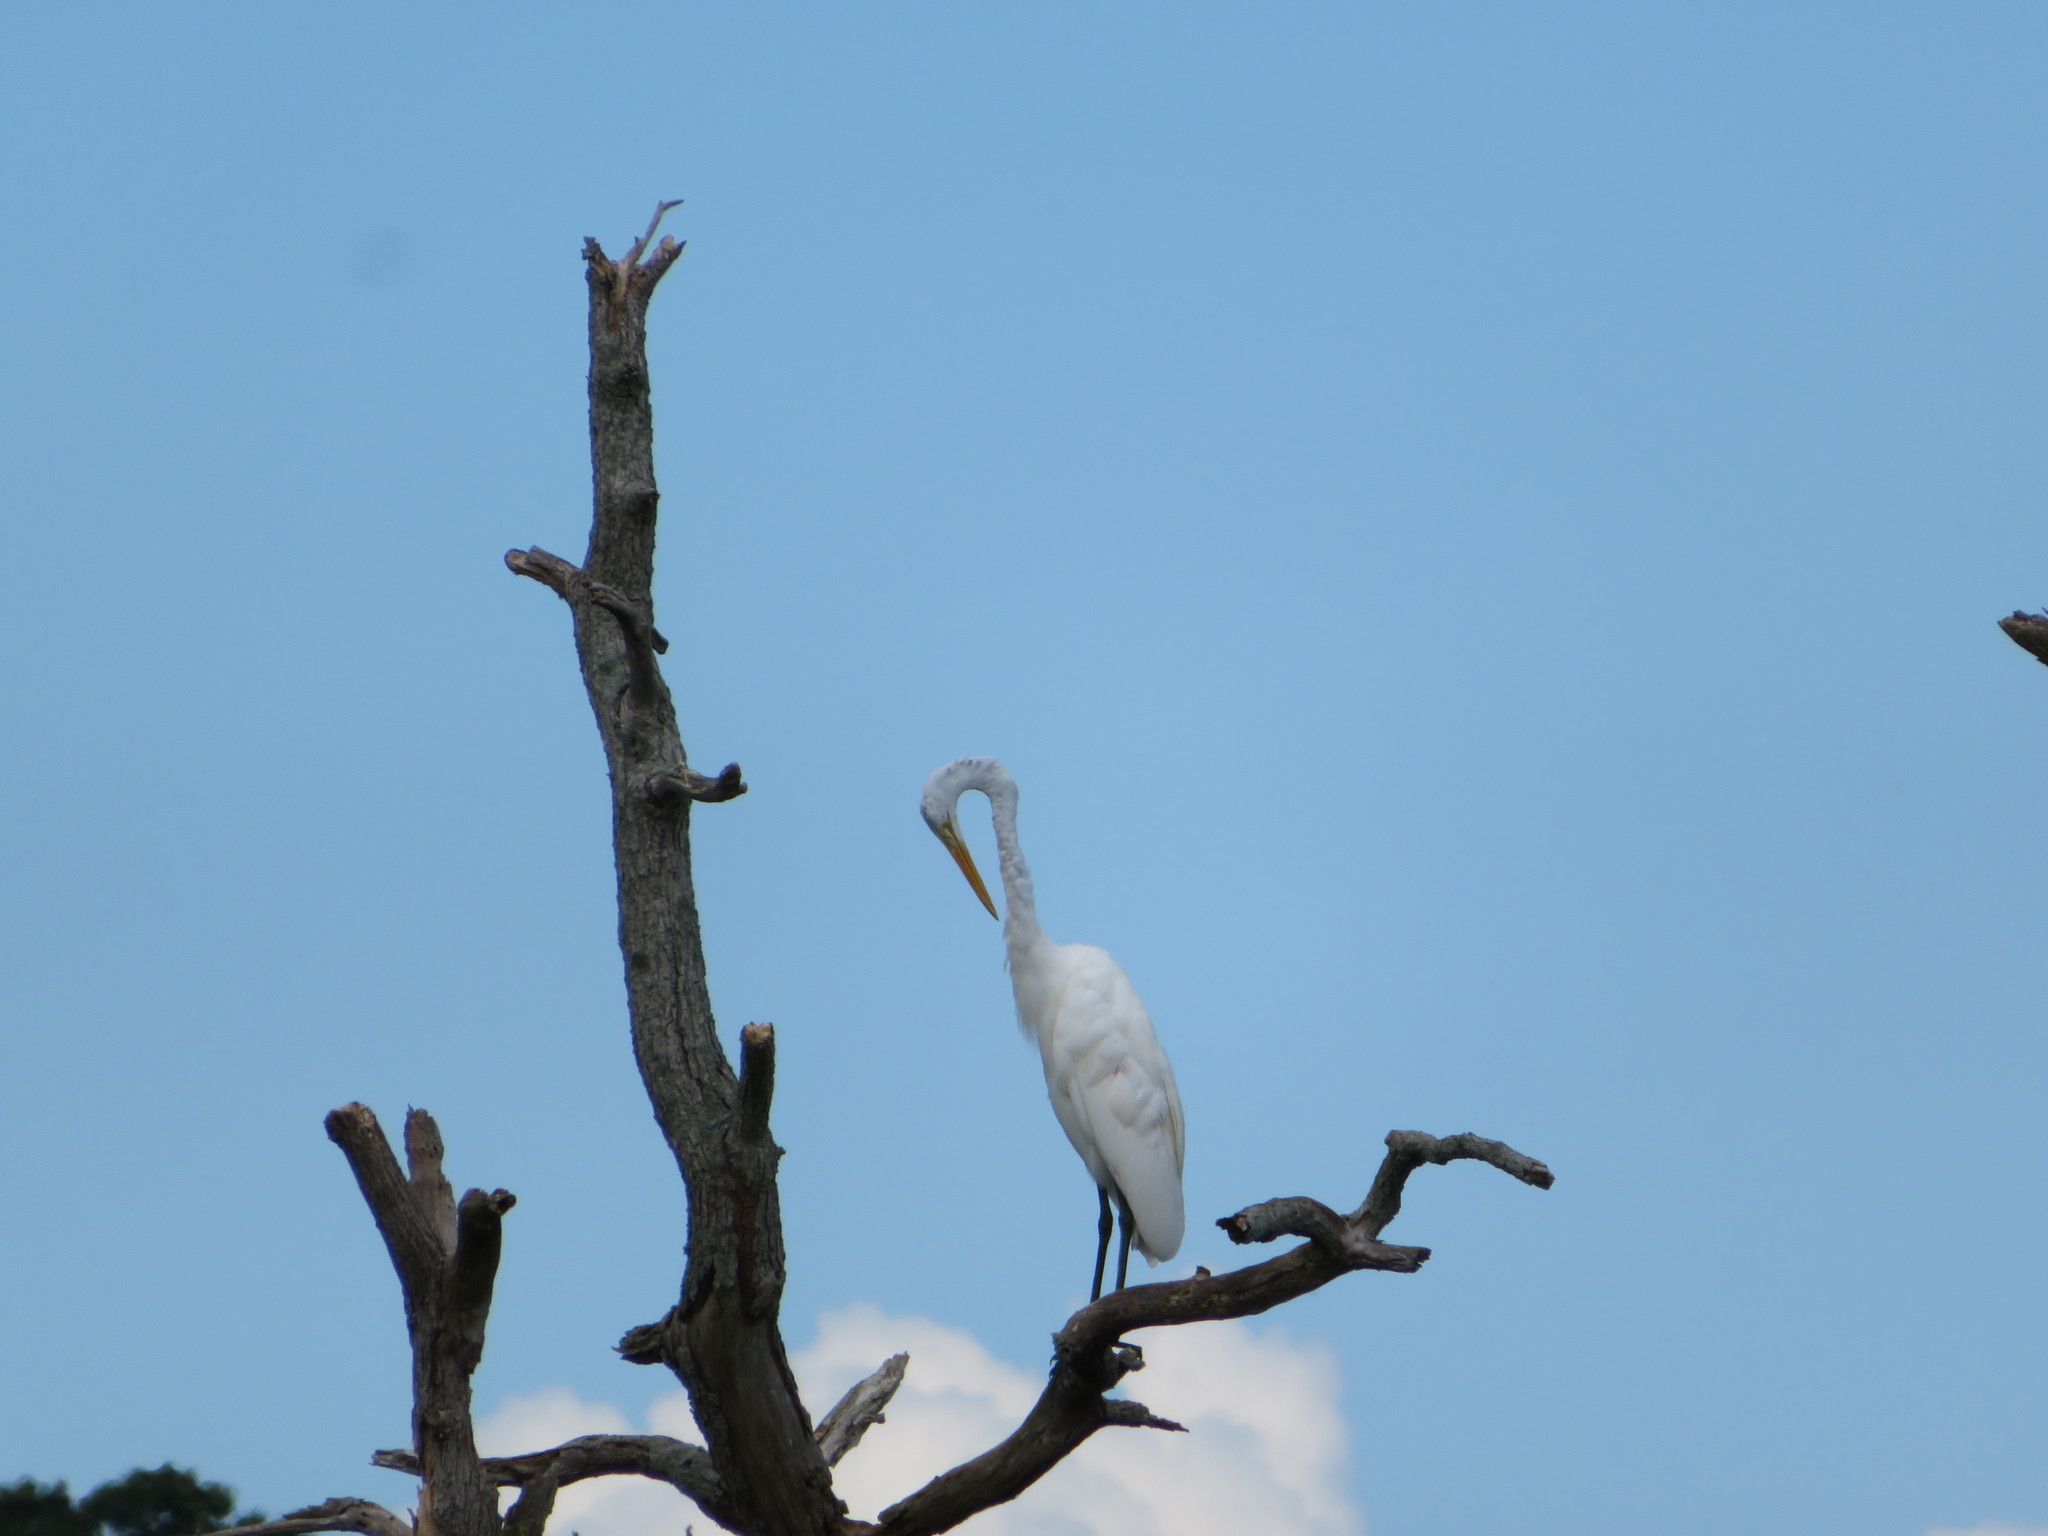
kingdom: Animalia
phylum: Chordata
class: Aves
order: Pelecaniformes
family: Ardeidae
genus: Ardea
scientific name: Ardea alba
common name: Great egret
